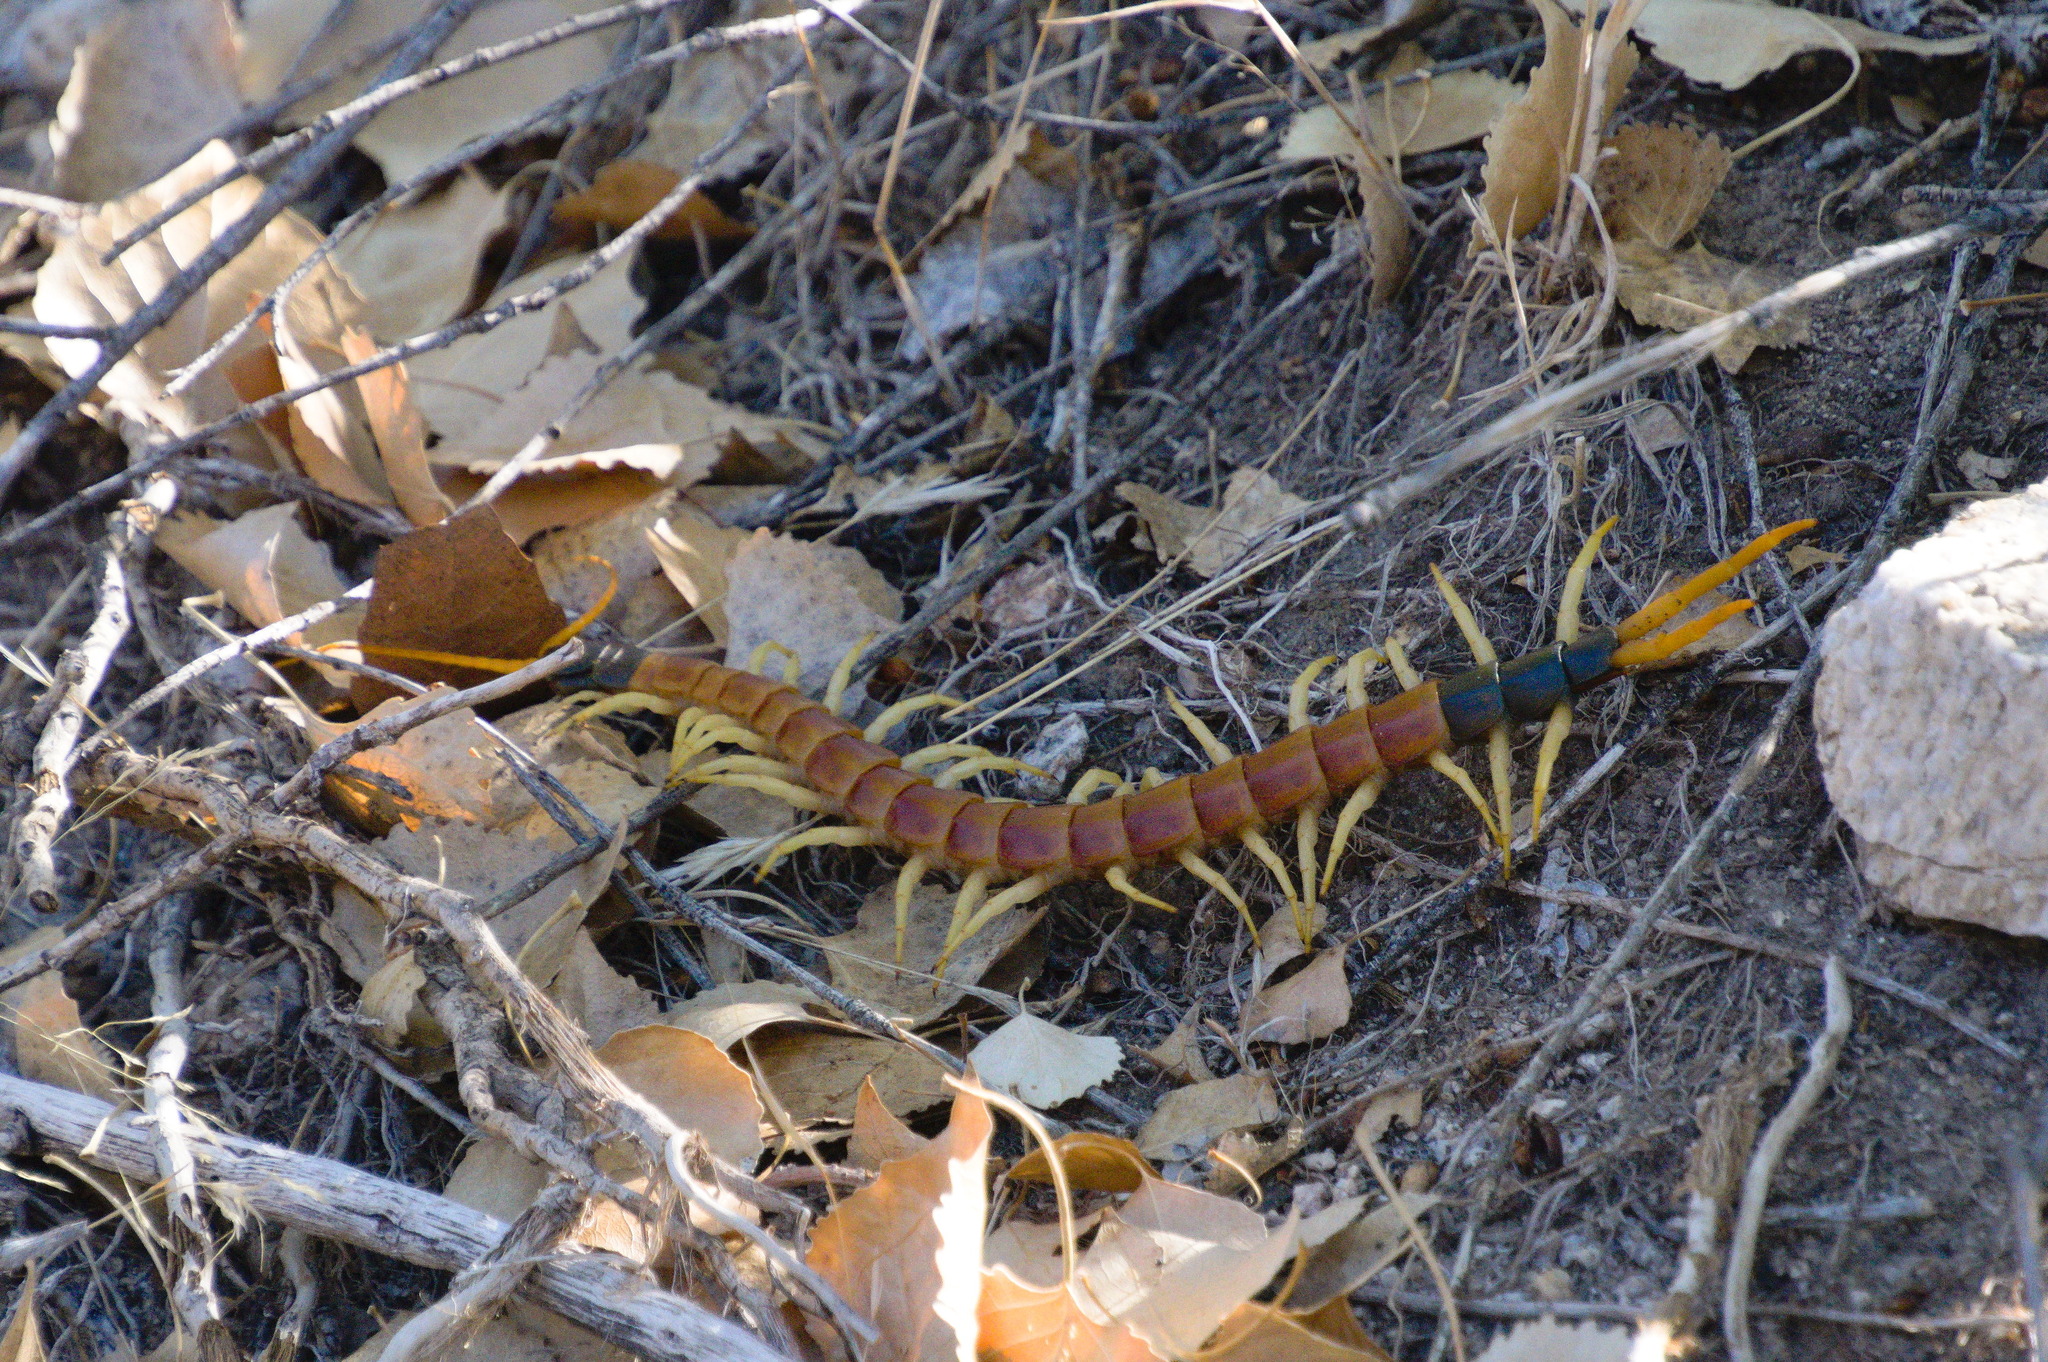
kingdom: Animalia
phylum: Arthropoda
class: Chilopoda
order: Scolopendromorpha
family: Scolopendridae
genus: Scolopendra
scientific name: Scolopendra heros
